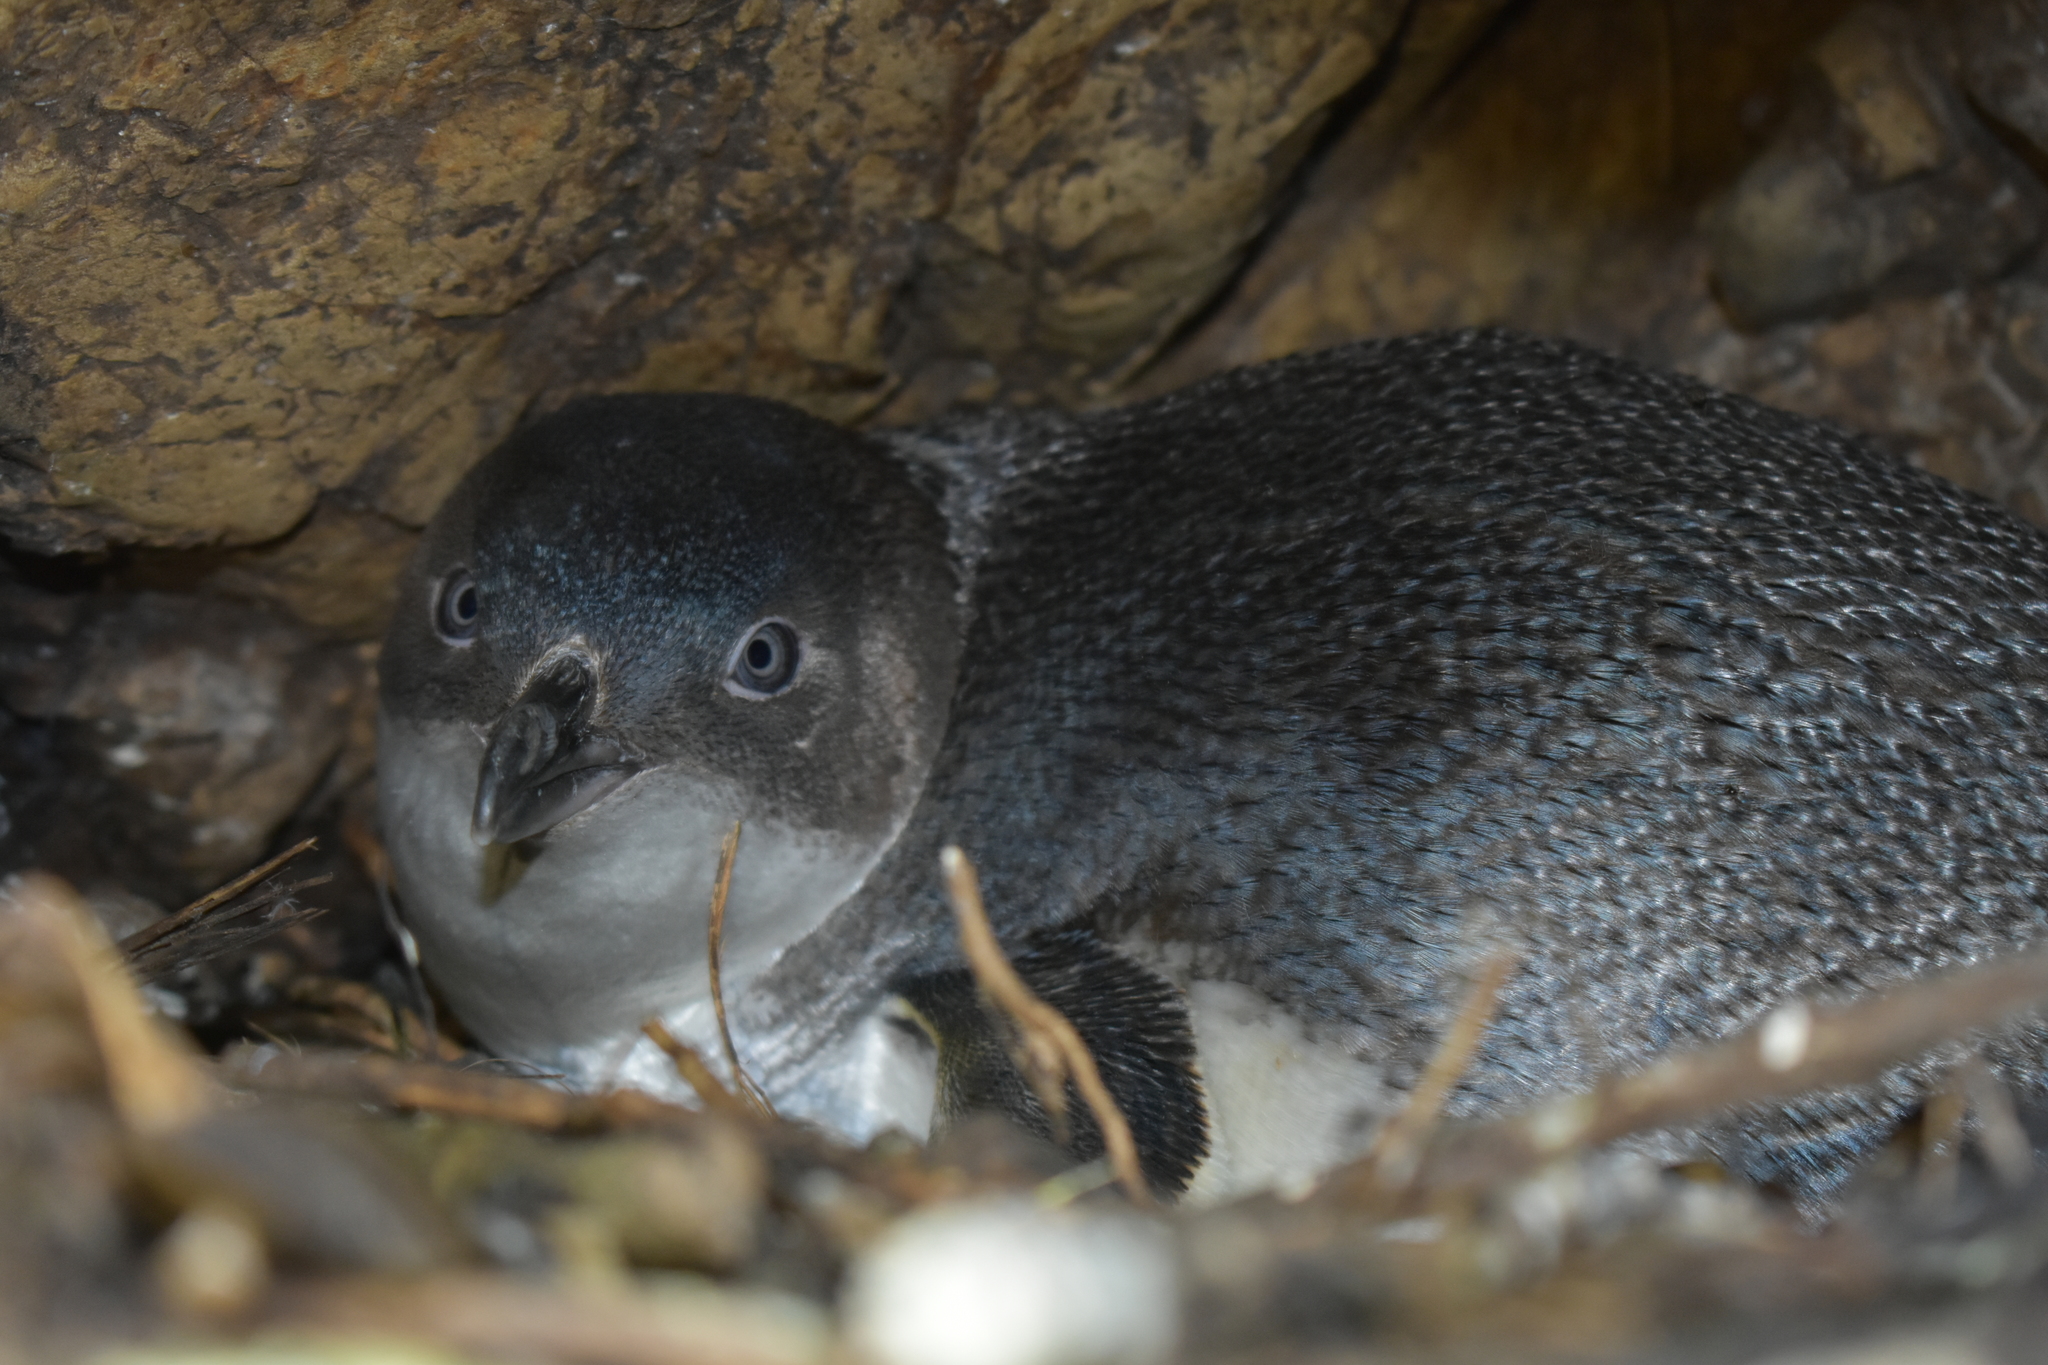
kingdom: Animalia
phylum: Chordata
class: Aves
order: Sphenisciformes
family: Spheniscidae
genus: Eudyptula
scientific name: Eudyptula minor
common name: Little penguin
